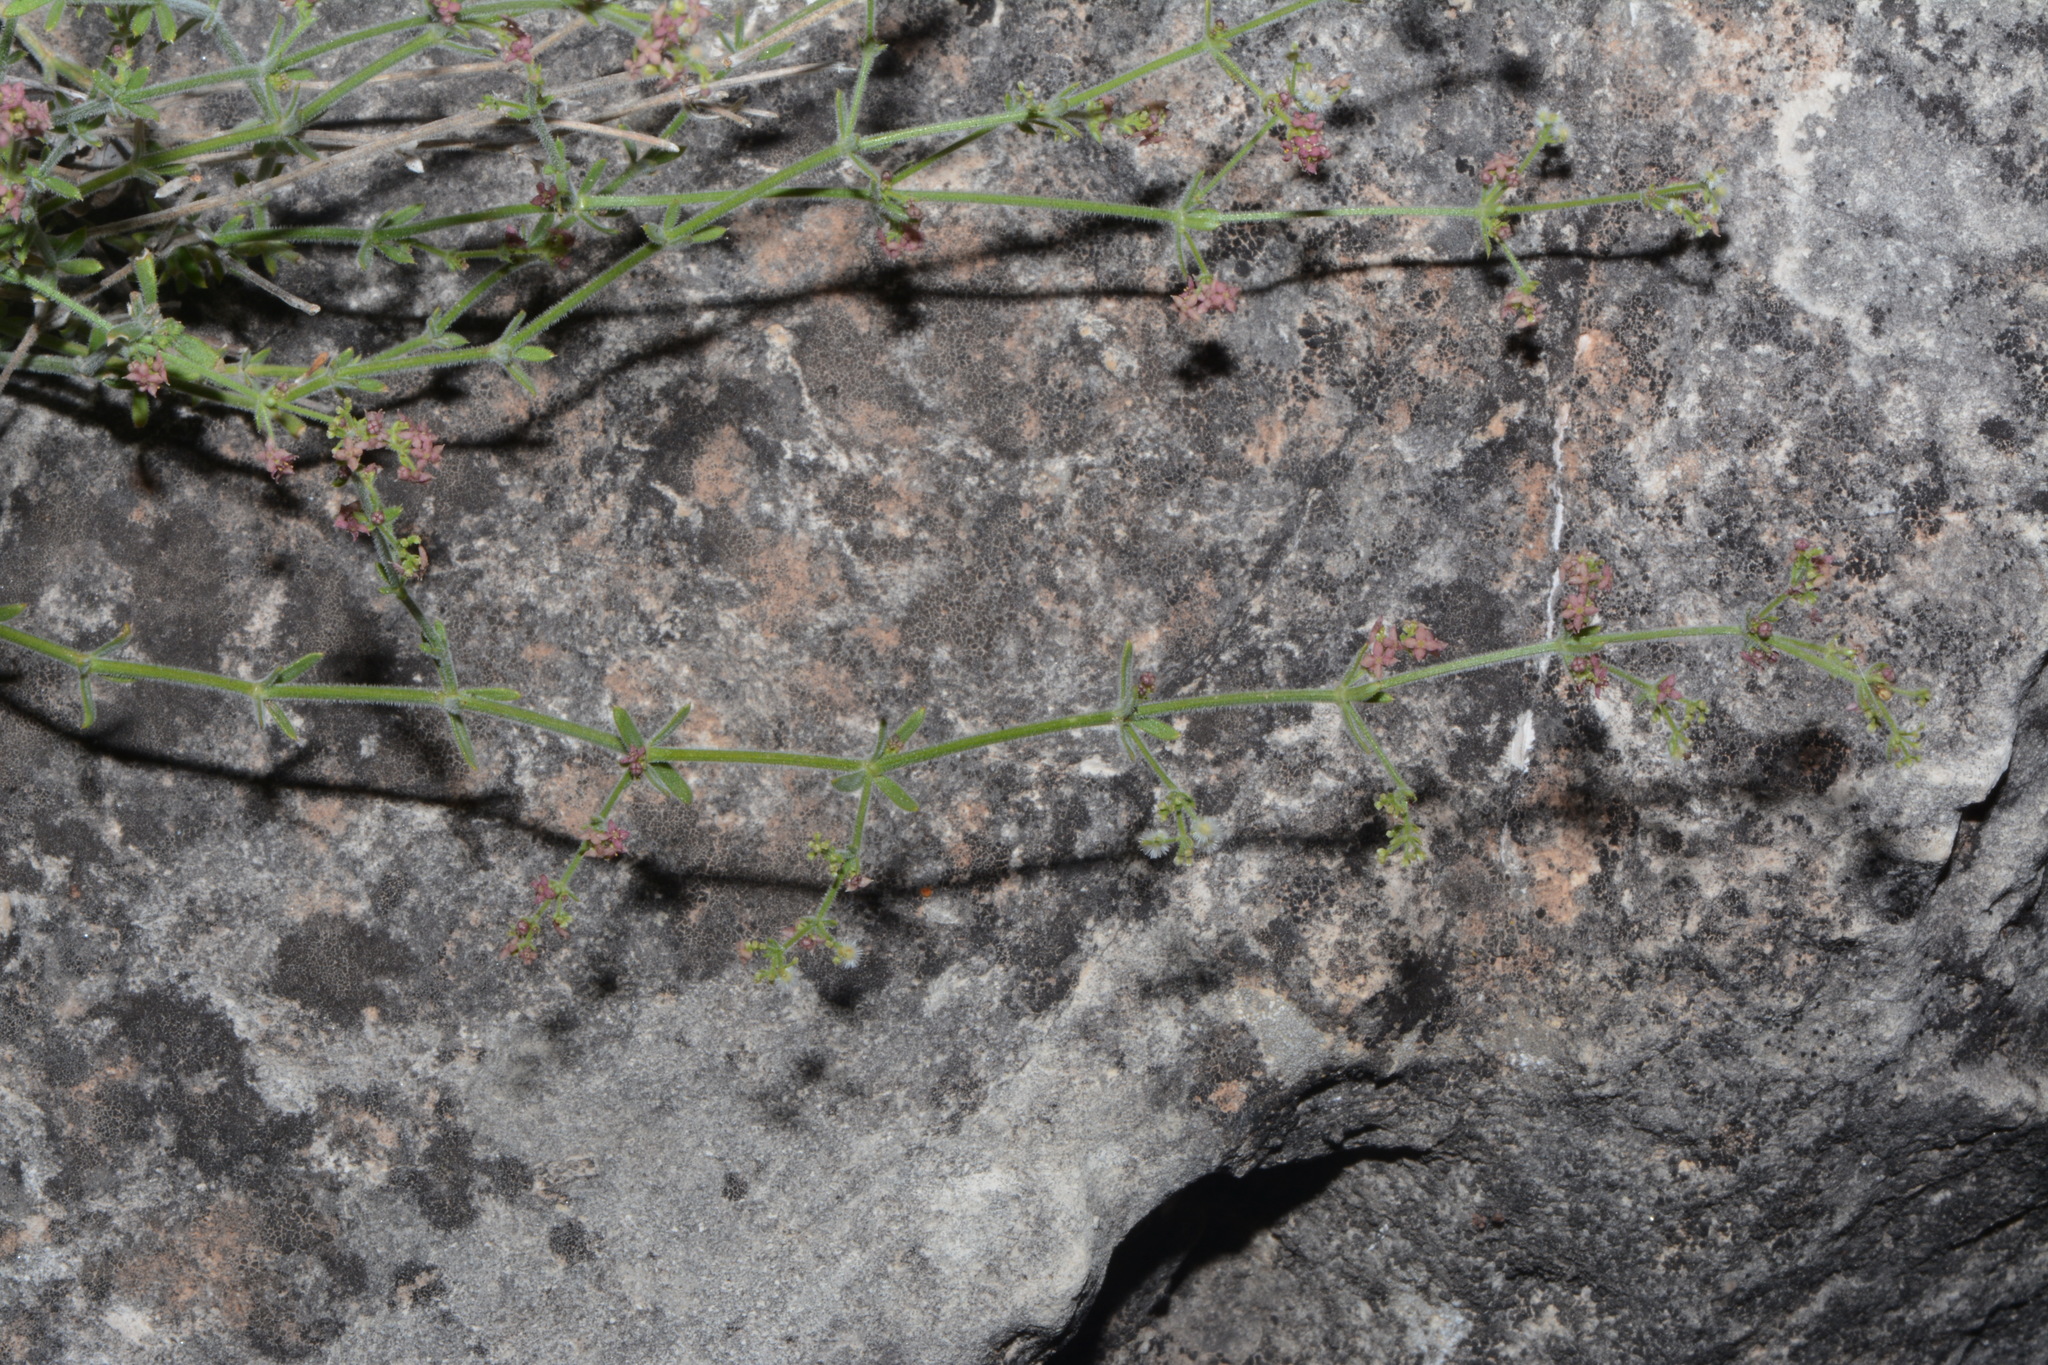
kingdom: Plantae
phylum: Tracheophyta
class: Magnoliopsida
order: Gentianales
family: Rubiaceae
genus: Galium
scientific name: Galium wrightii
